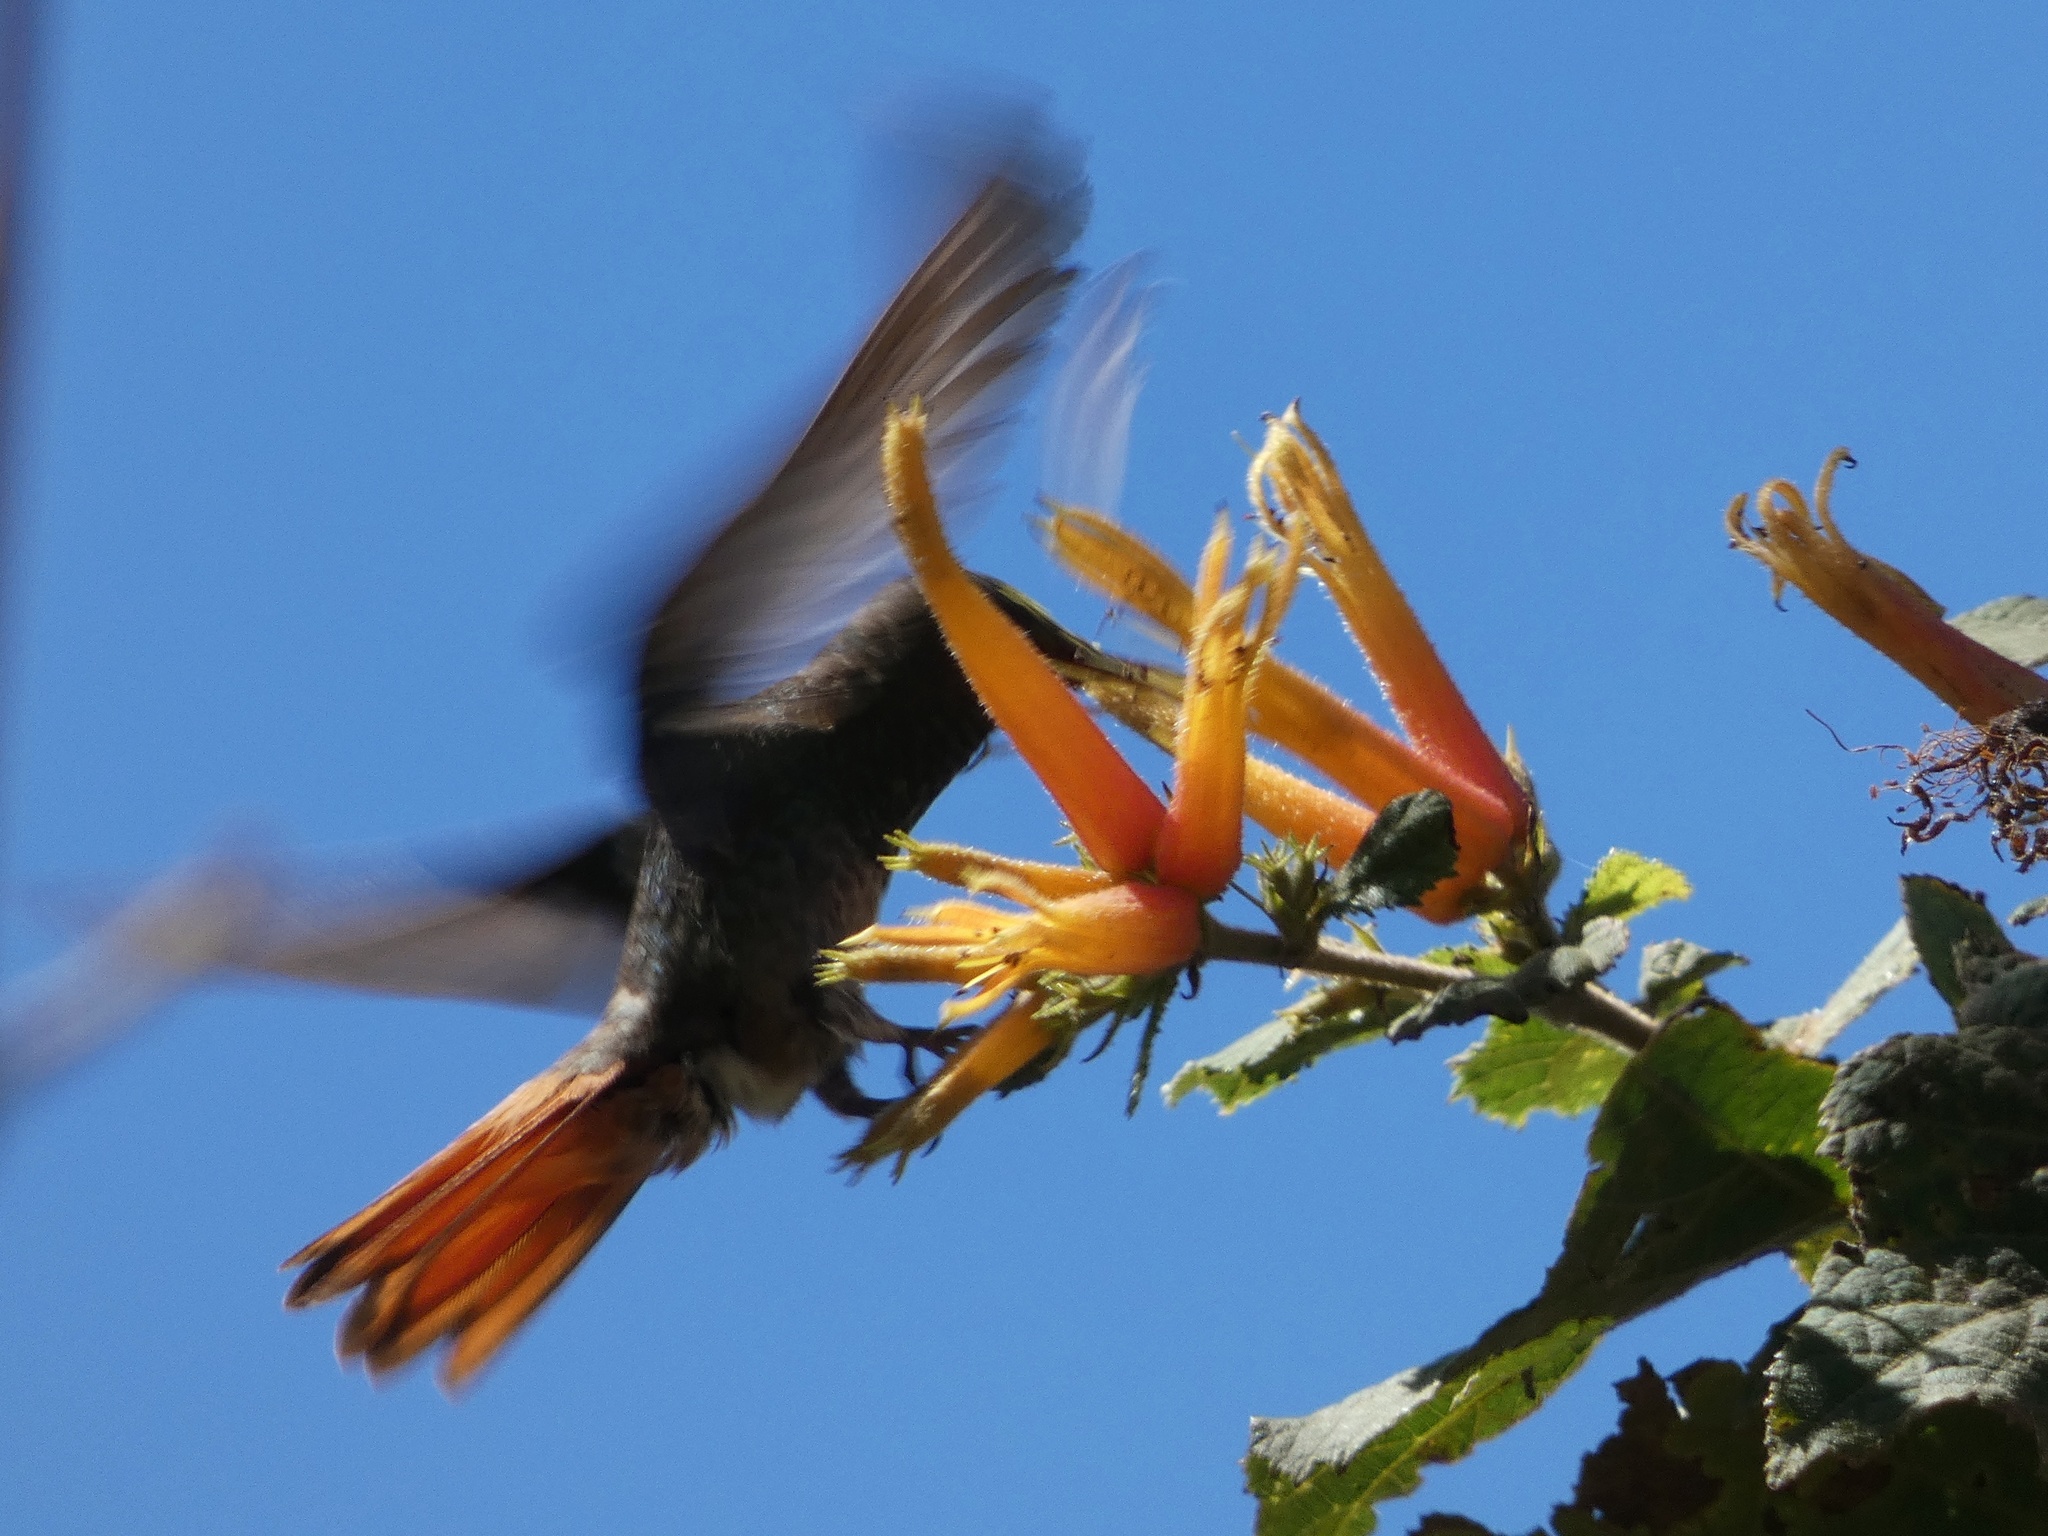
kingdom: Animalia
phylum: Chordata
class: Aves
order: Apodiformes
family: Trochilidae
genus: Amazilia
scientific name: Amazilia tzacatl
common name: Rufous-tailed hummingbird
